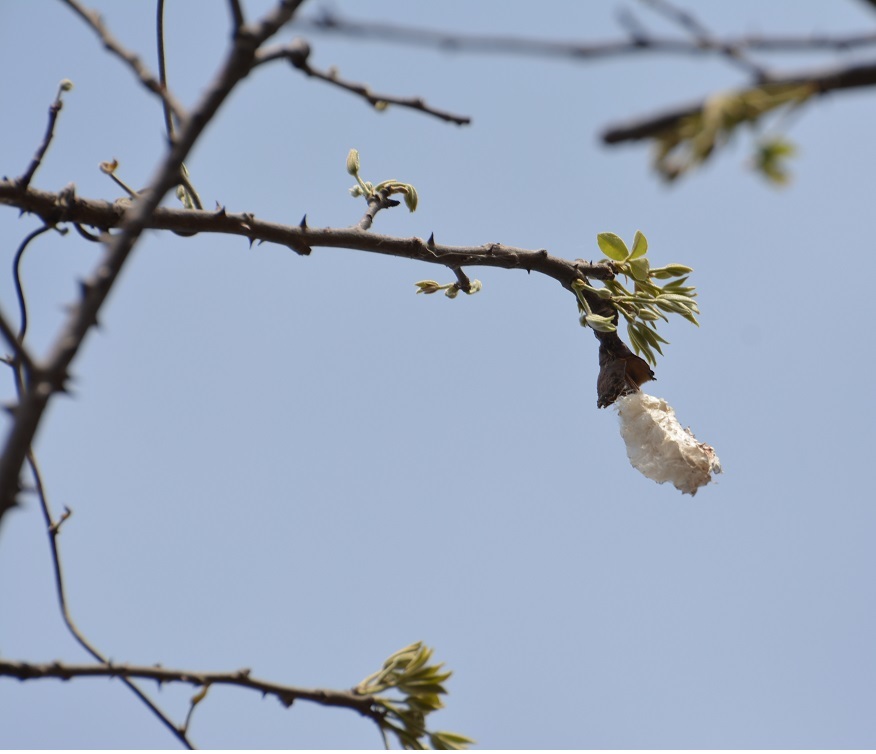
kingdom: Plantae
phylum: Tracheophyta
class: Magnoliopsida
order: Malvales
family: Malvaceae
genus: Ceiba
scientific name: Ceiba aesculifolia
